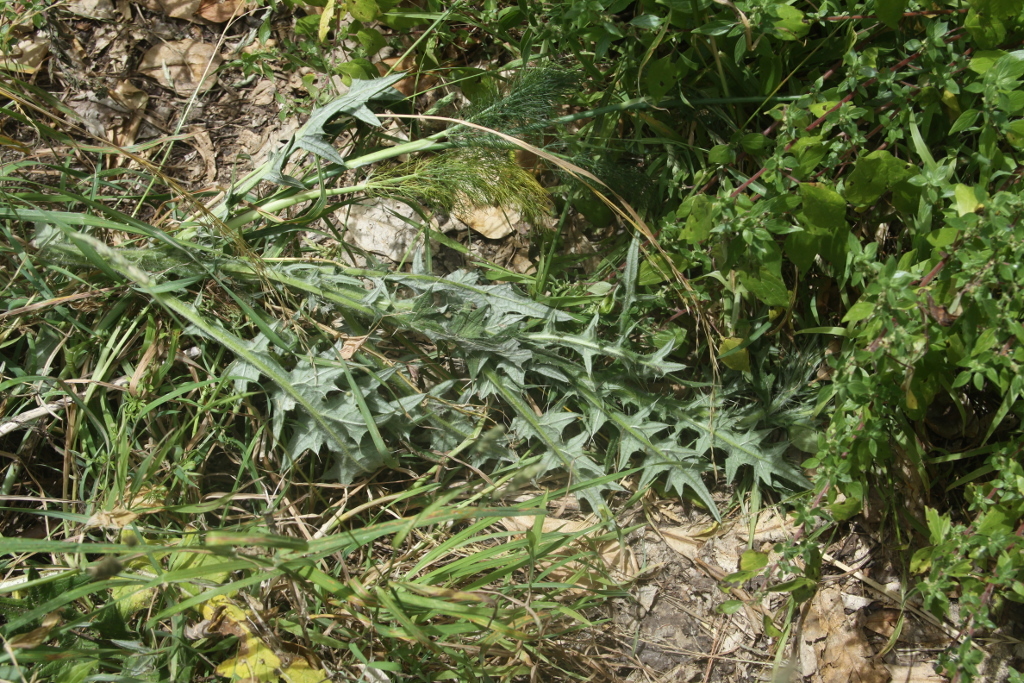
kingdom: Plantae
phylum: Tracheophyta
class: Magnoliopsida
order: Asterales
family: Asteraceae
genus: Cirsium
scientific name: Cirsium vulgare
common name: Bull thistle
